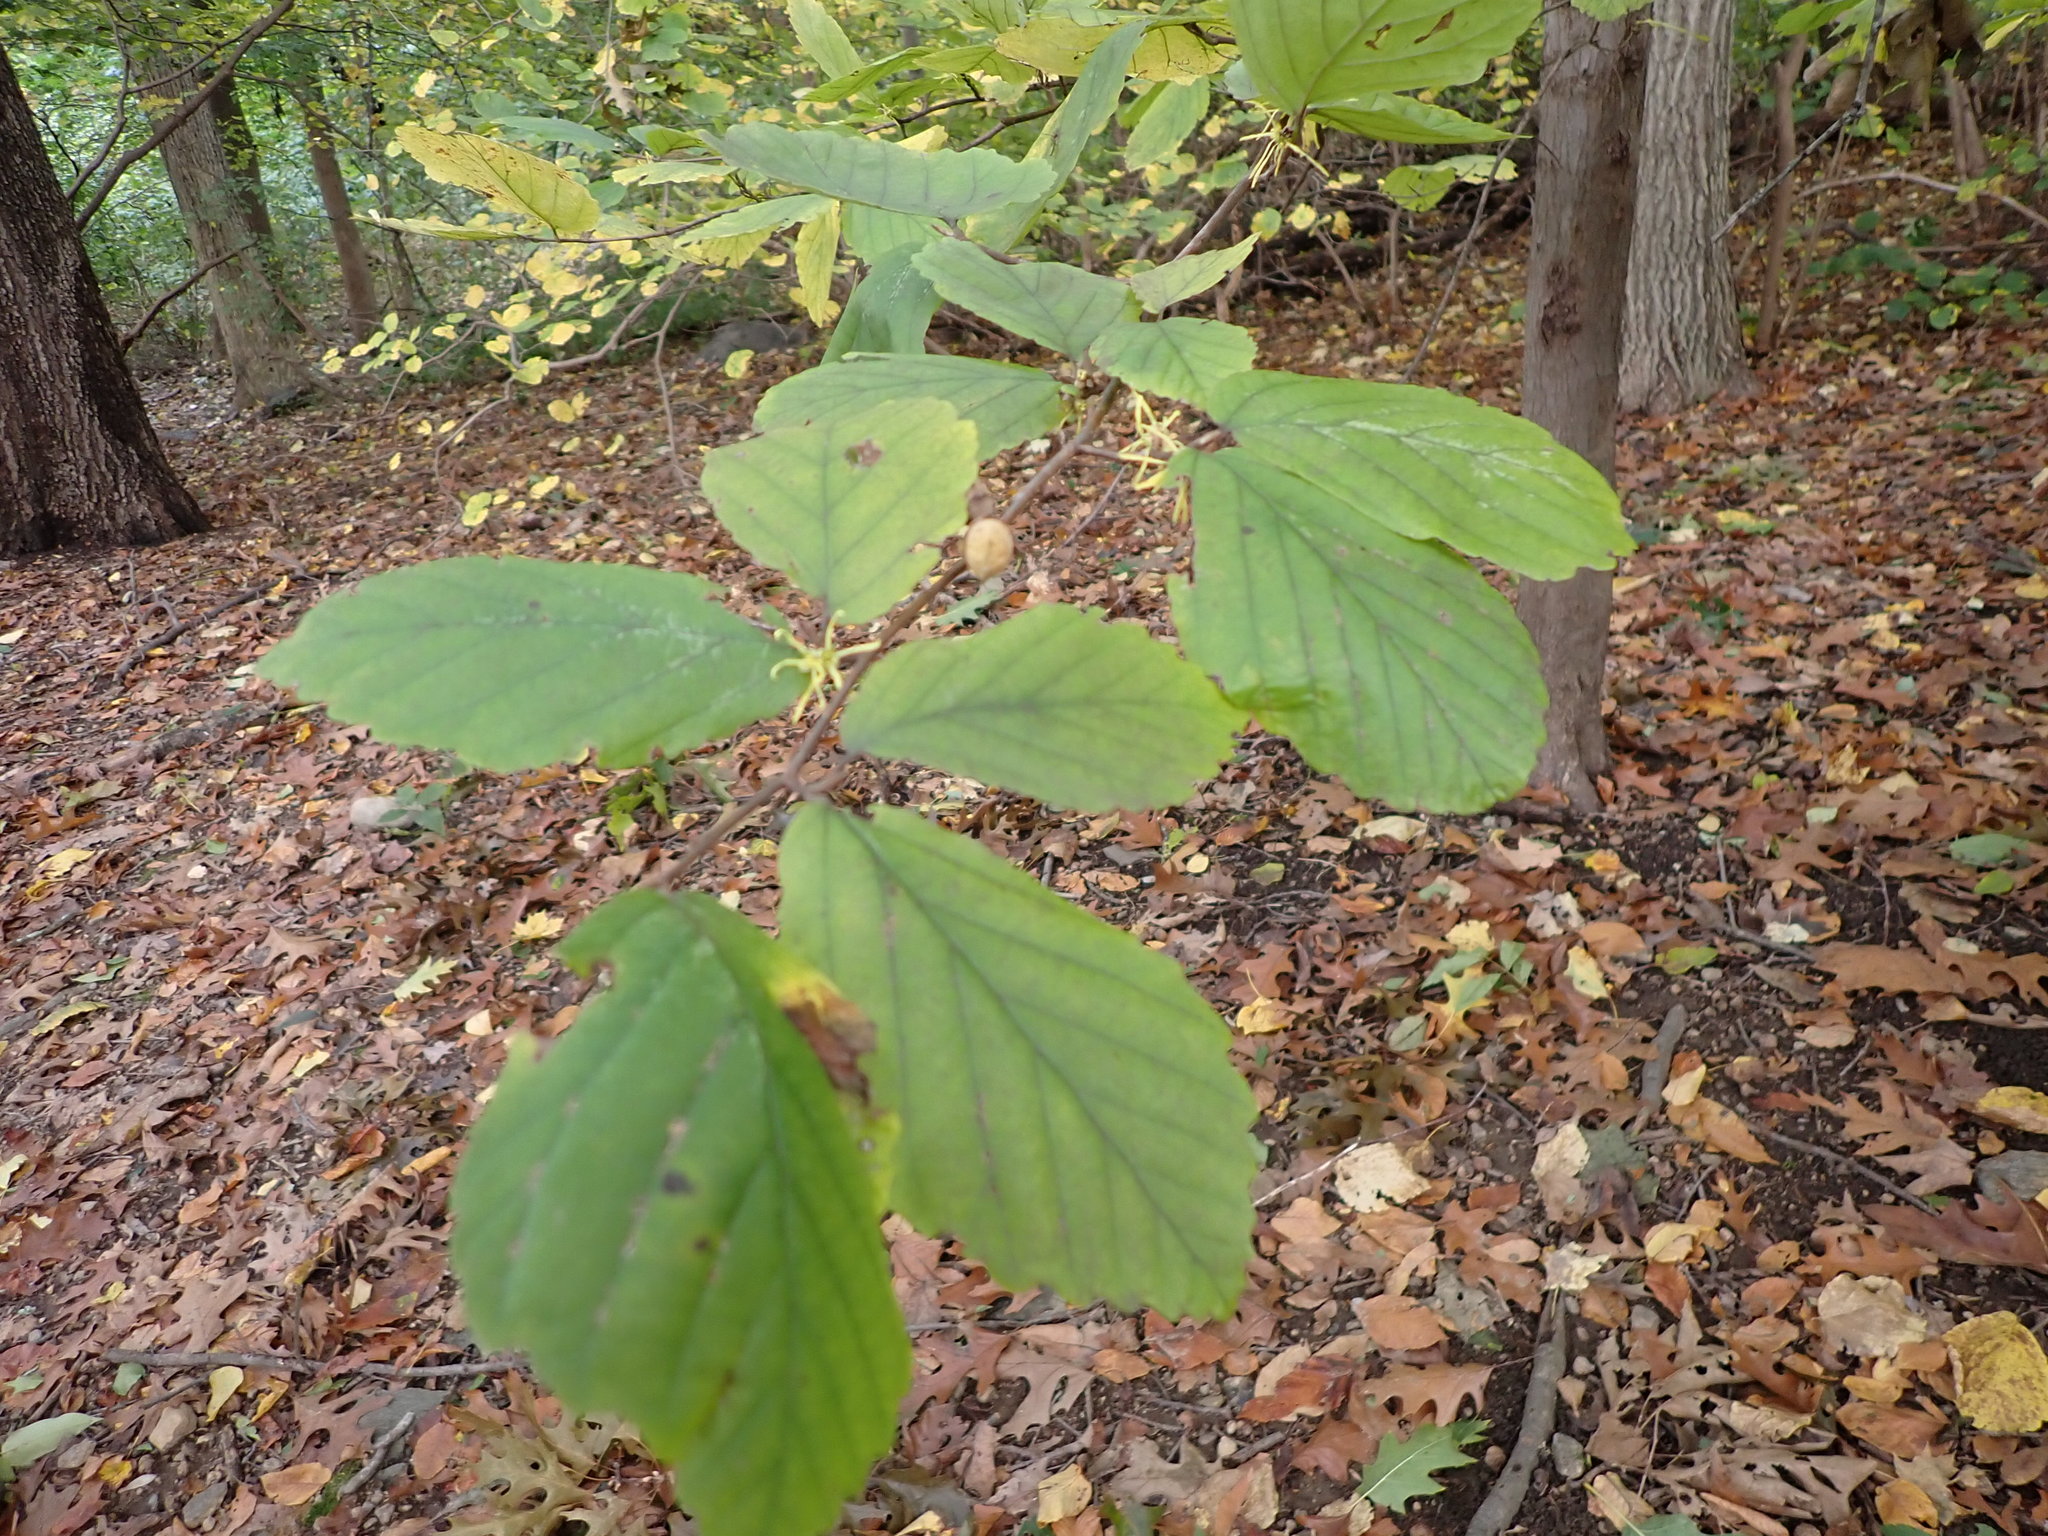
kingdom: Plantae
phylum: Tracheophyta
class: Magnoliopsida
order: Saxifragales
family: Hamamelidaceae
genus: Hamamelis
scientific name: Hamamelis virginiana
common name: Witch-hazel
